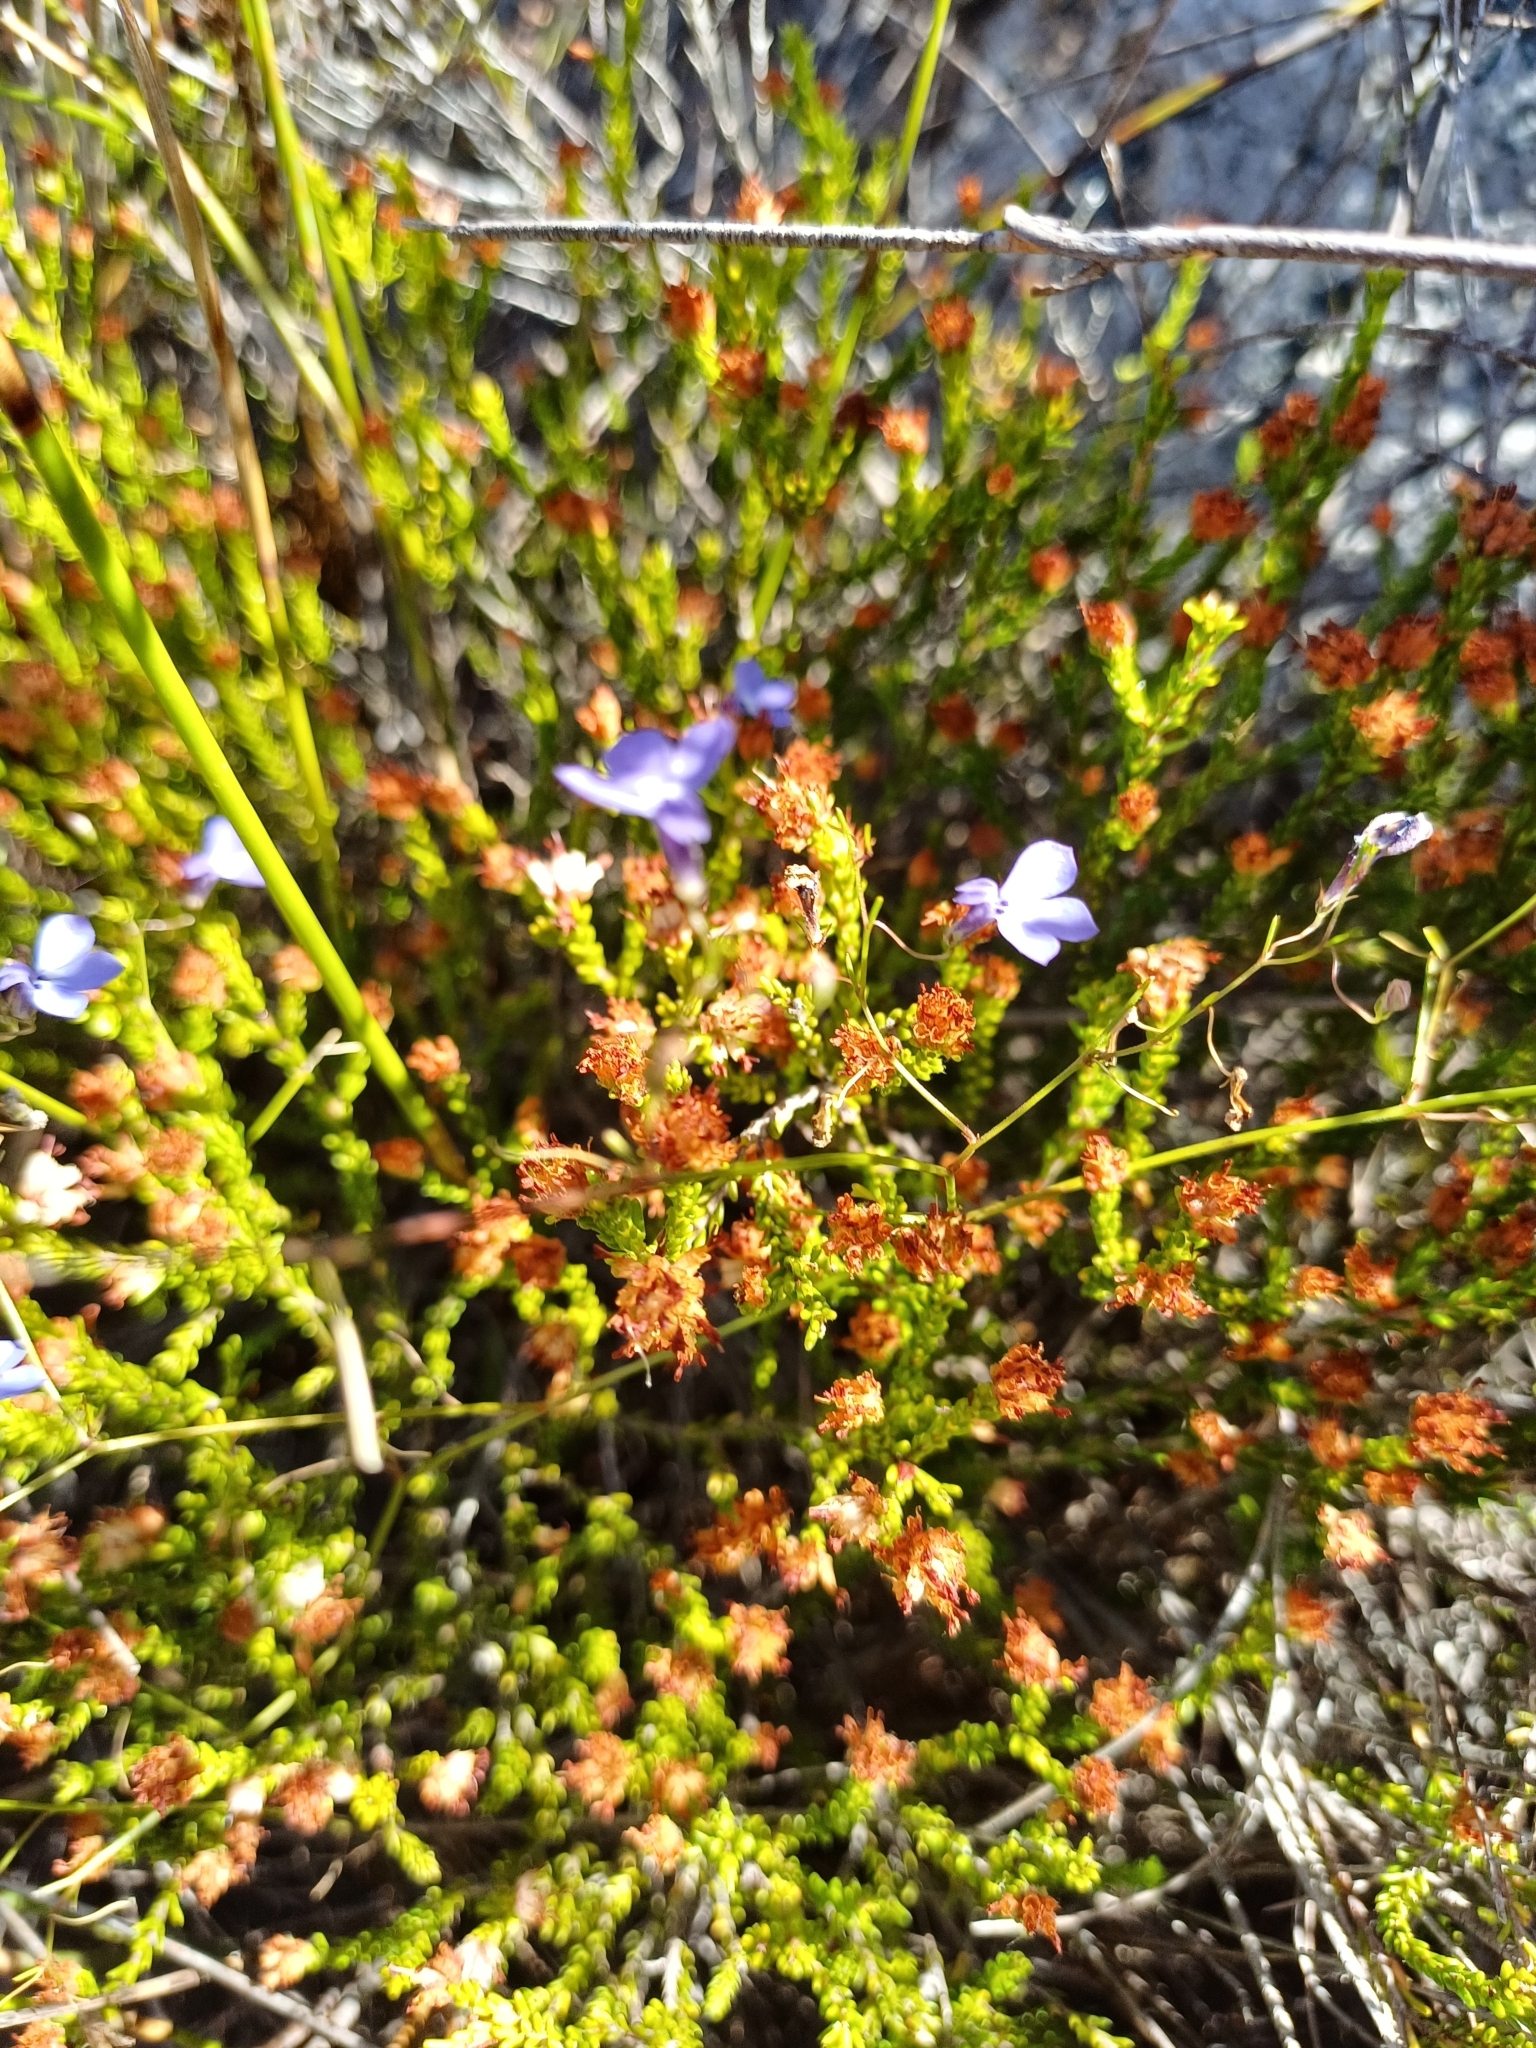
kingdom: Plantae
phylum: Tracheophyta
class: Magnoliopsida
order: Asterales
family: Campanulaceae
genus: Lobelia
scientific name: Lobelia setacea
